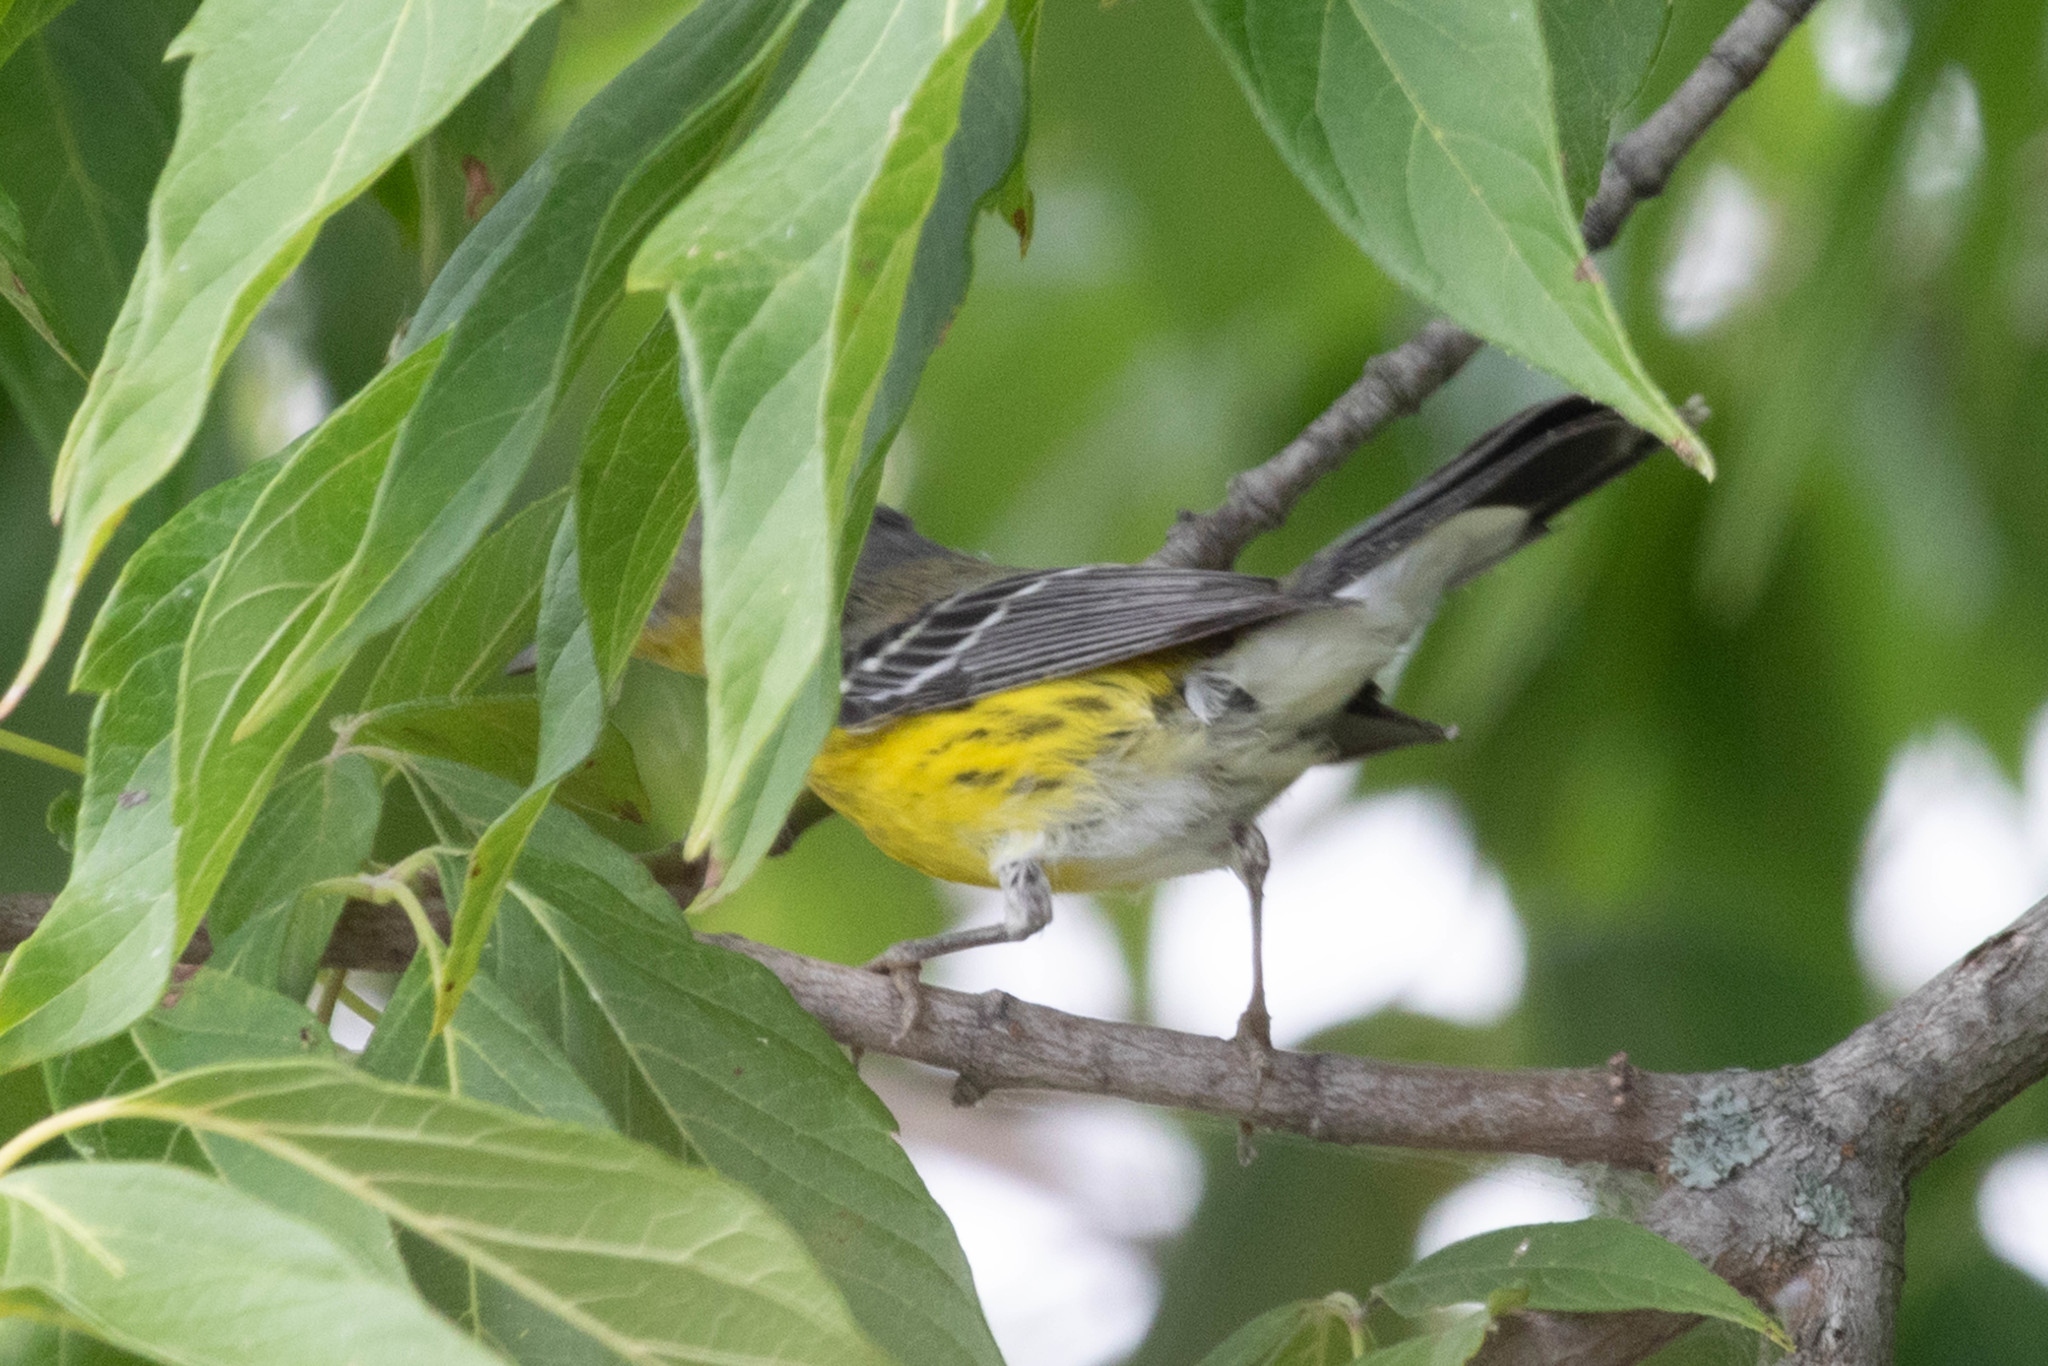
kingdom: Animalia
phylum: Chordata
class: Aves
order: Passeriformes
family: Parulidae
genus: Setophaga
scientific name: Setophaga magnolia
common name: Magnolia warbler
